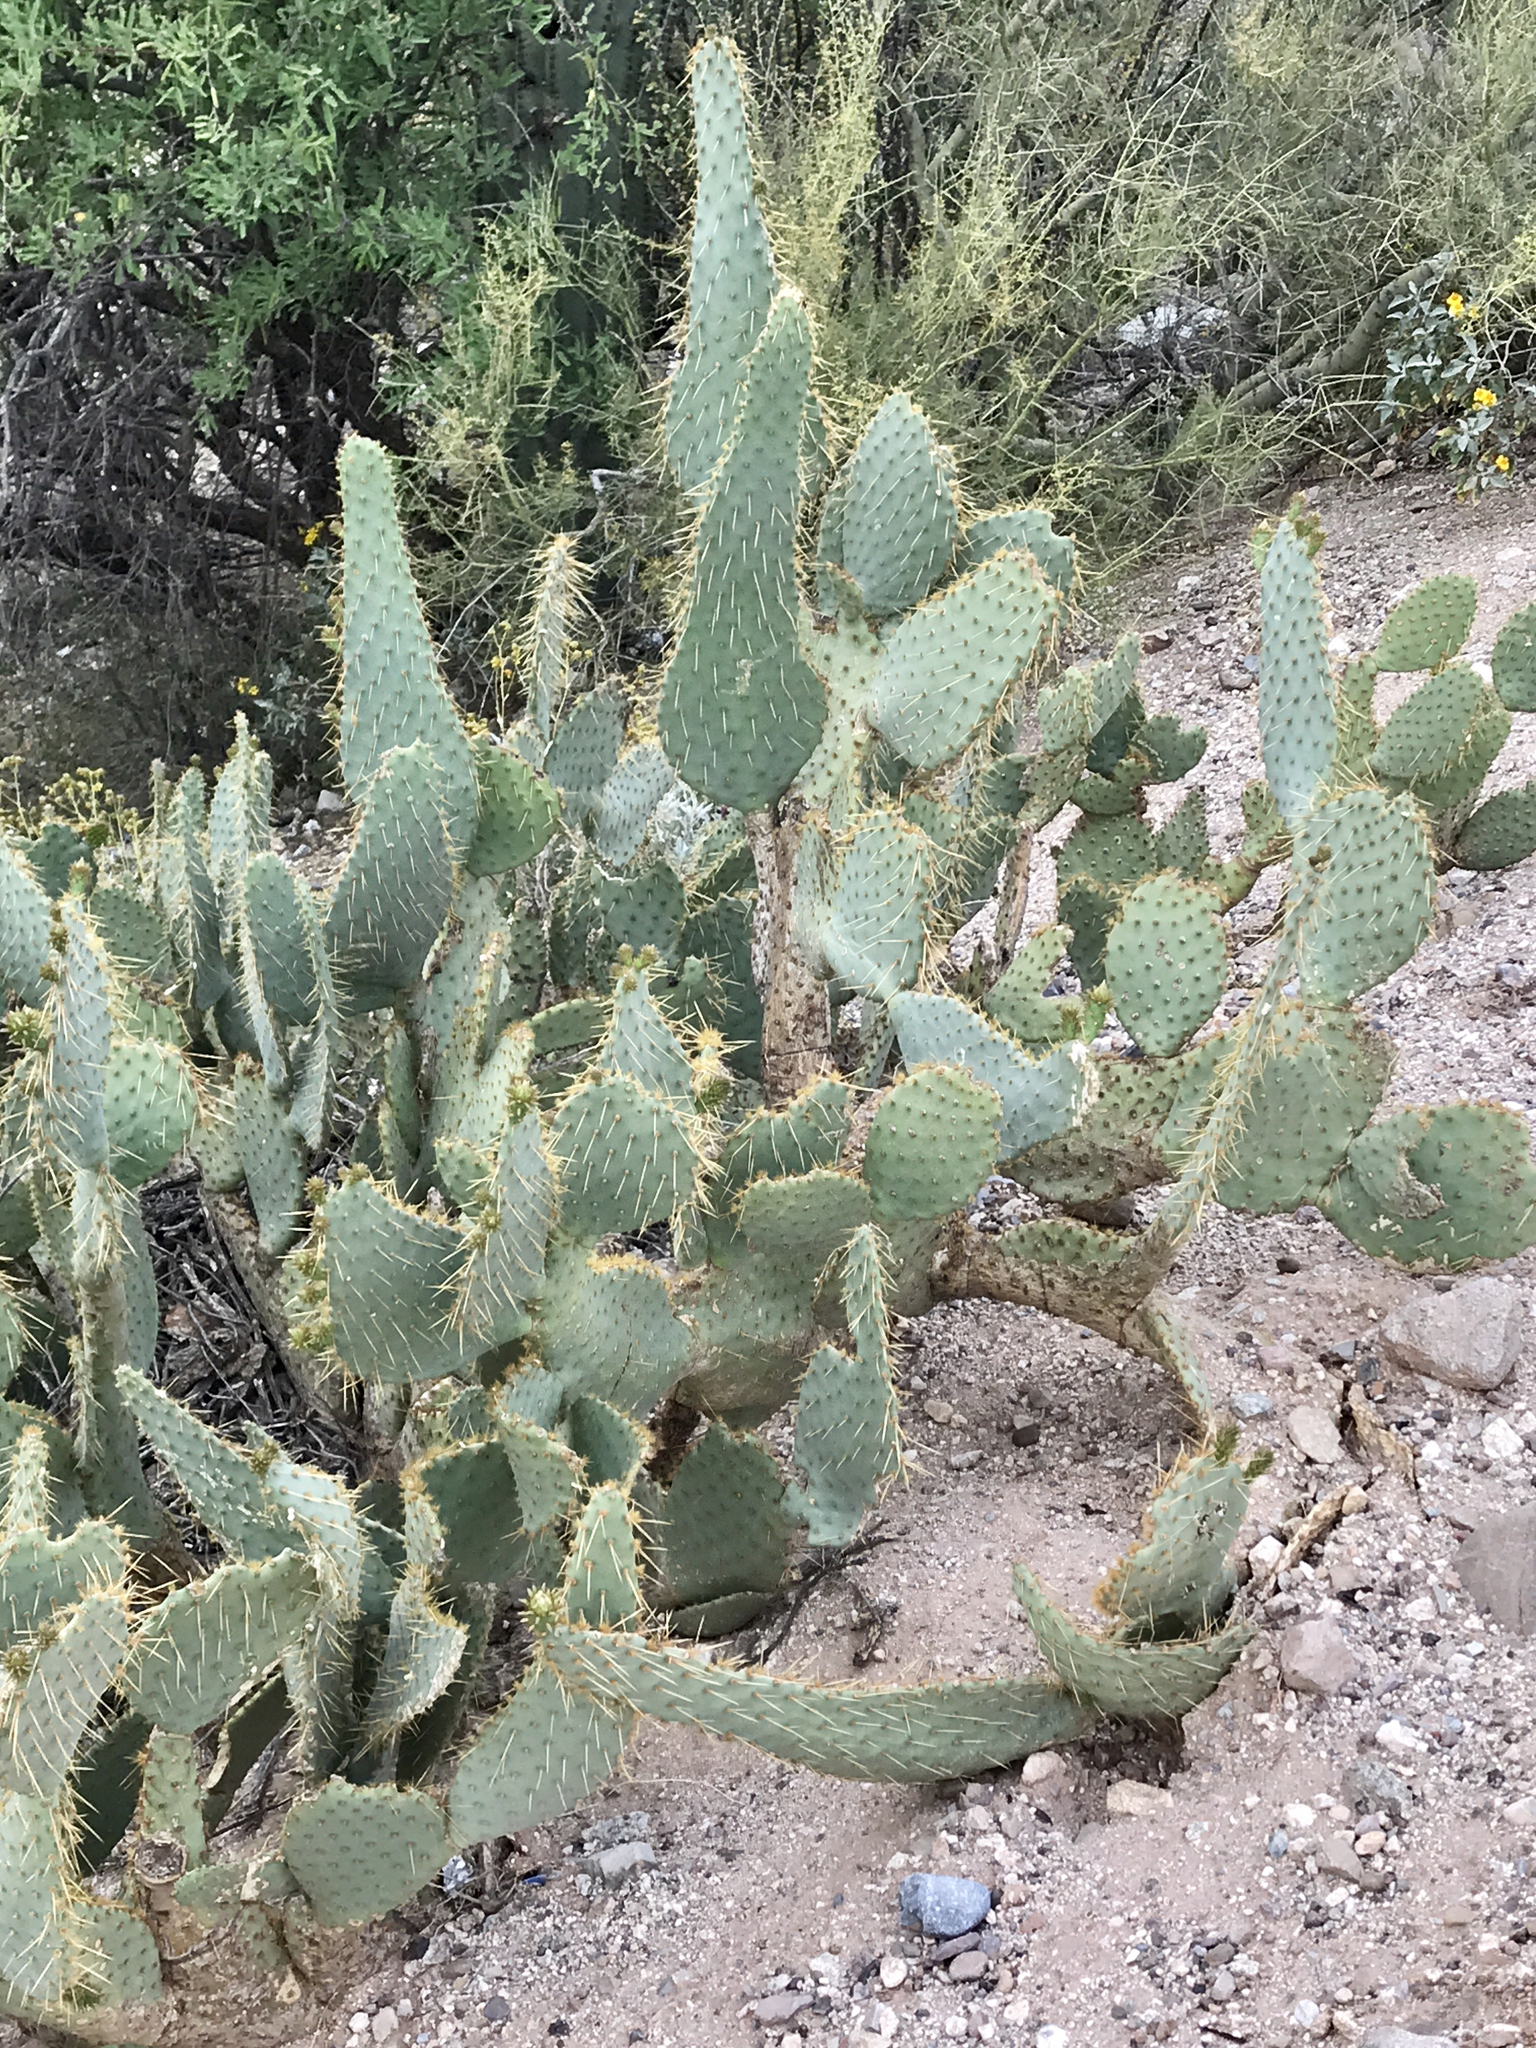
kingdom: Plantae
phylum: Tracheophyta
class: Magnoliopsida
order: Caryophyllales
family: Cactaceae
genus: Opuntia
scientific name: Opuntia engelmannii
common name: Cactus-apple
